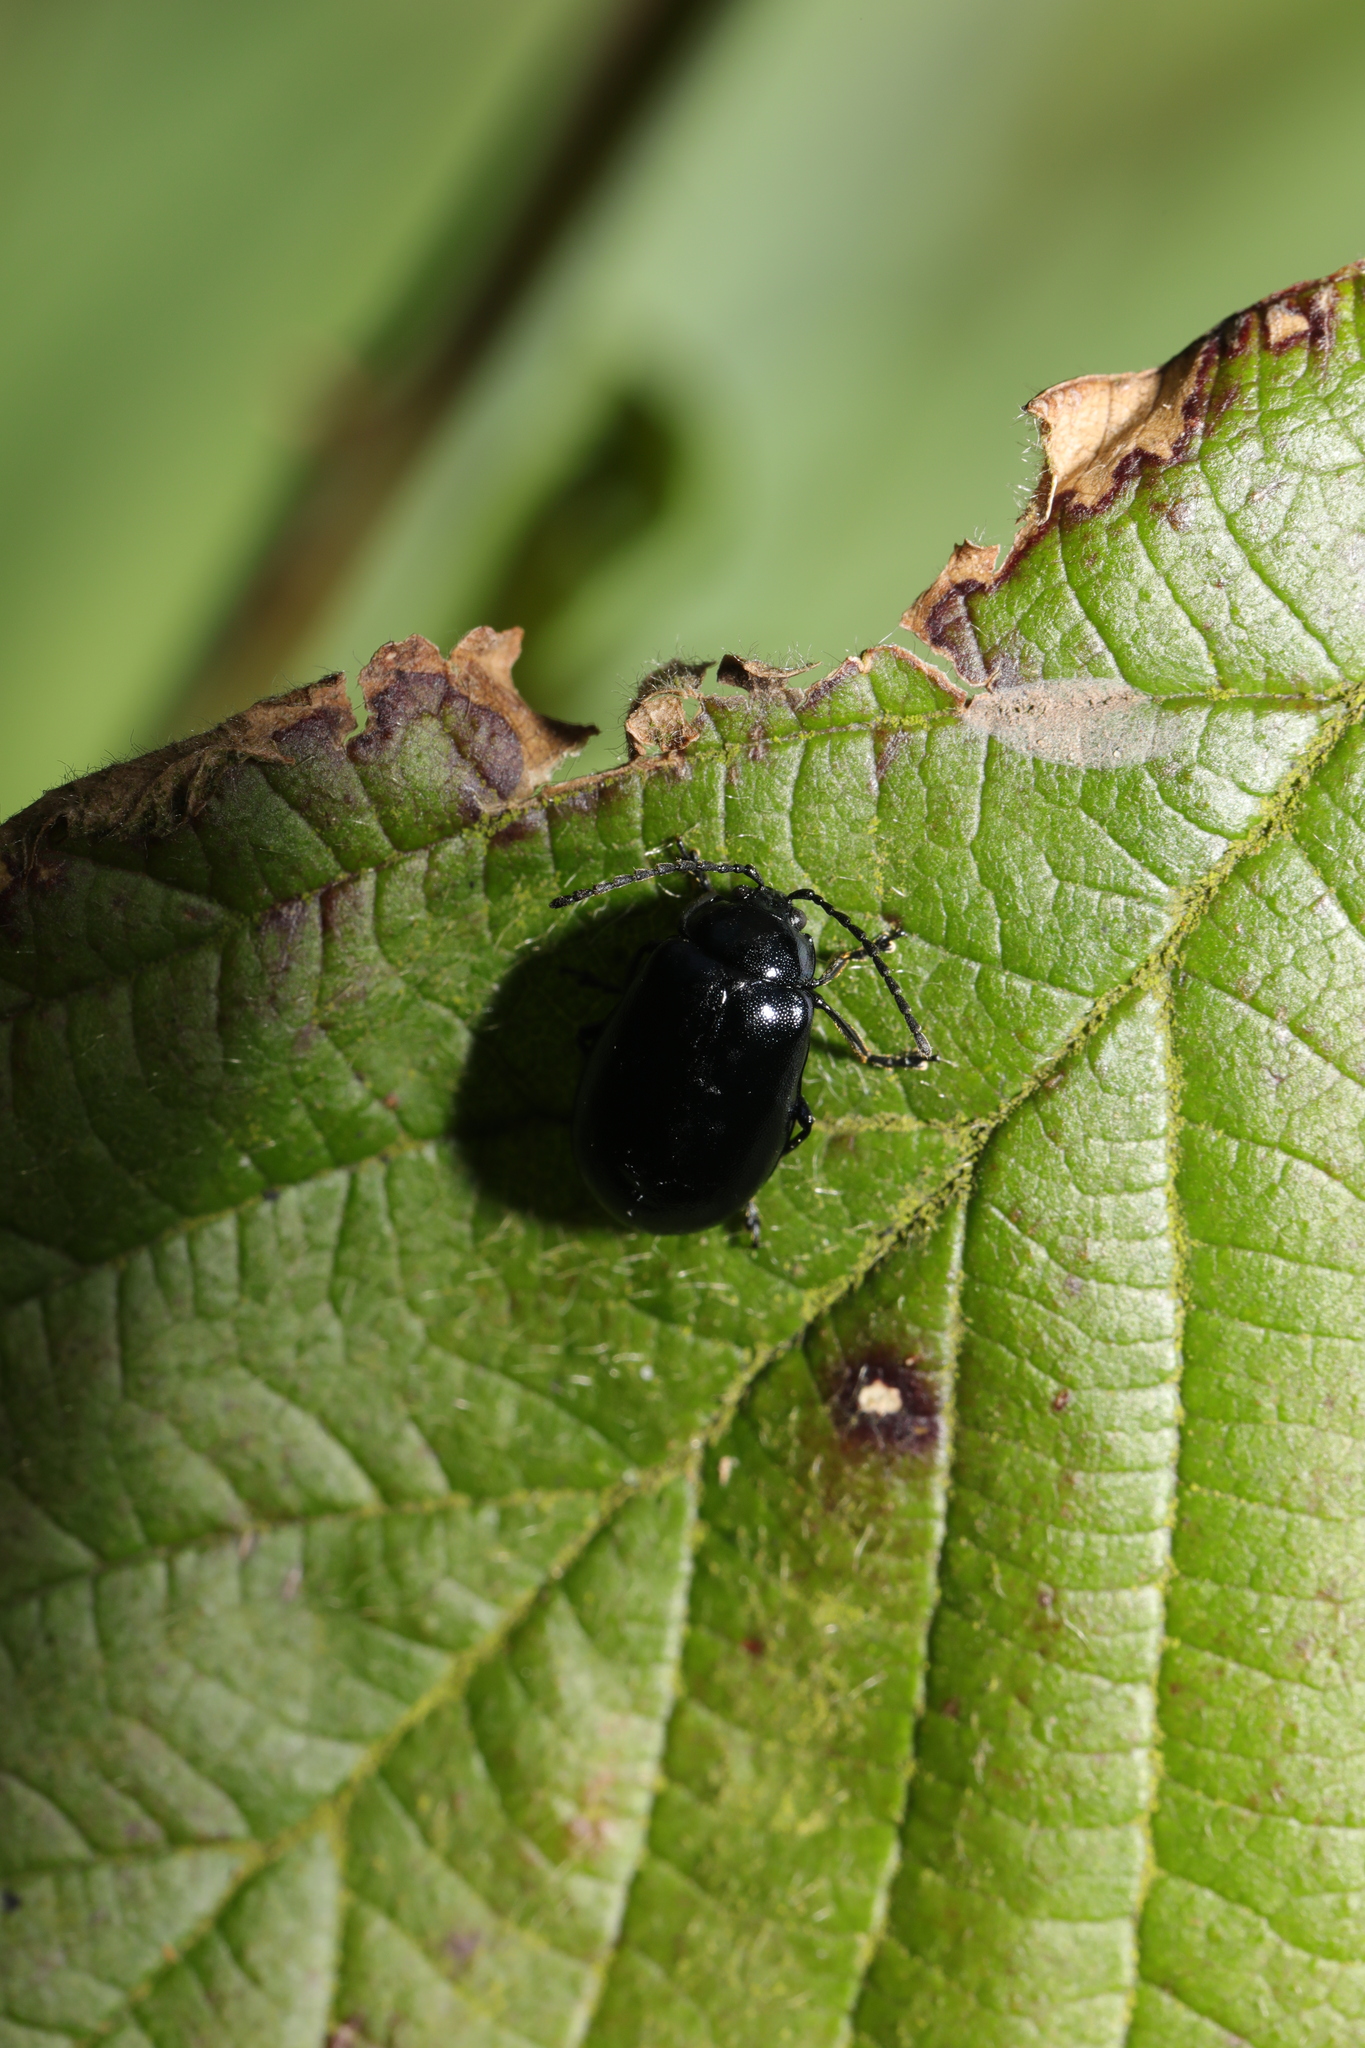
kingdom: Animalia
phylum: Arthropoda
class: Insecta
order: Coleoptera
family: Chrysomelidae
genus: Agelastica
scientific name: Agelastica alni
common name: Alder leaf beetle
